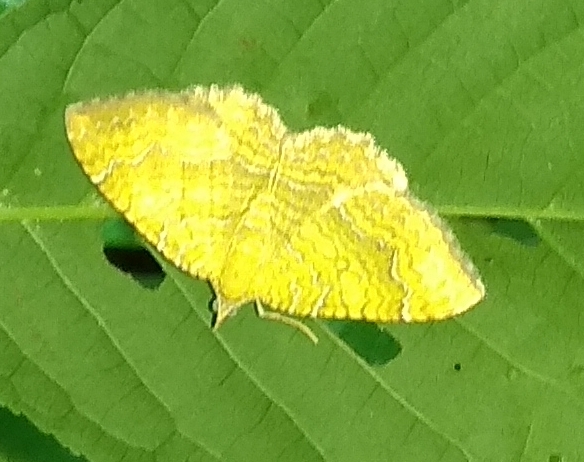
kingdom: Animalia
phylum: Arthropoda
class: Insecta
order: Lepidoptera
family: Geometridae
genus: Camptogramma
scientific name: Camptogramma bilineata
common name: Yellow shell
